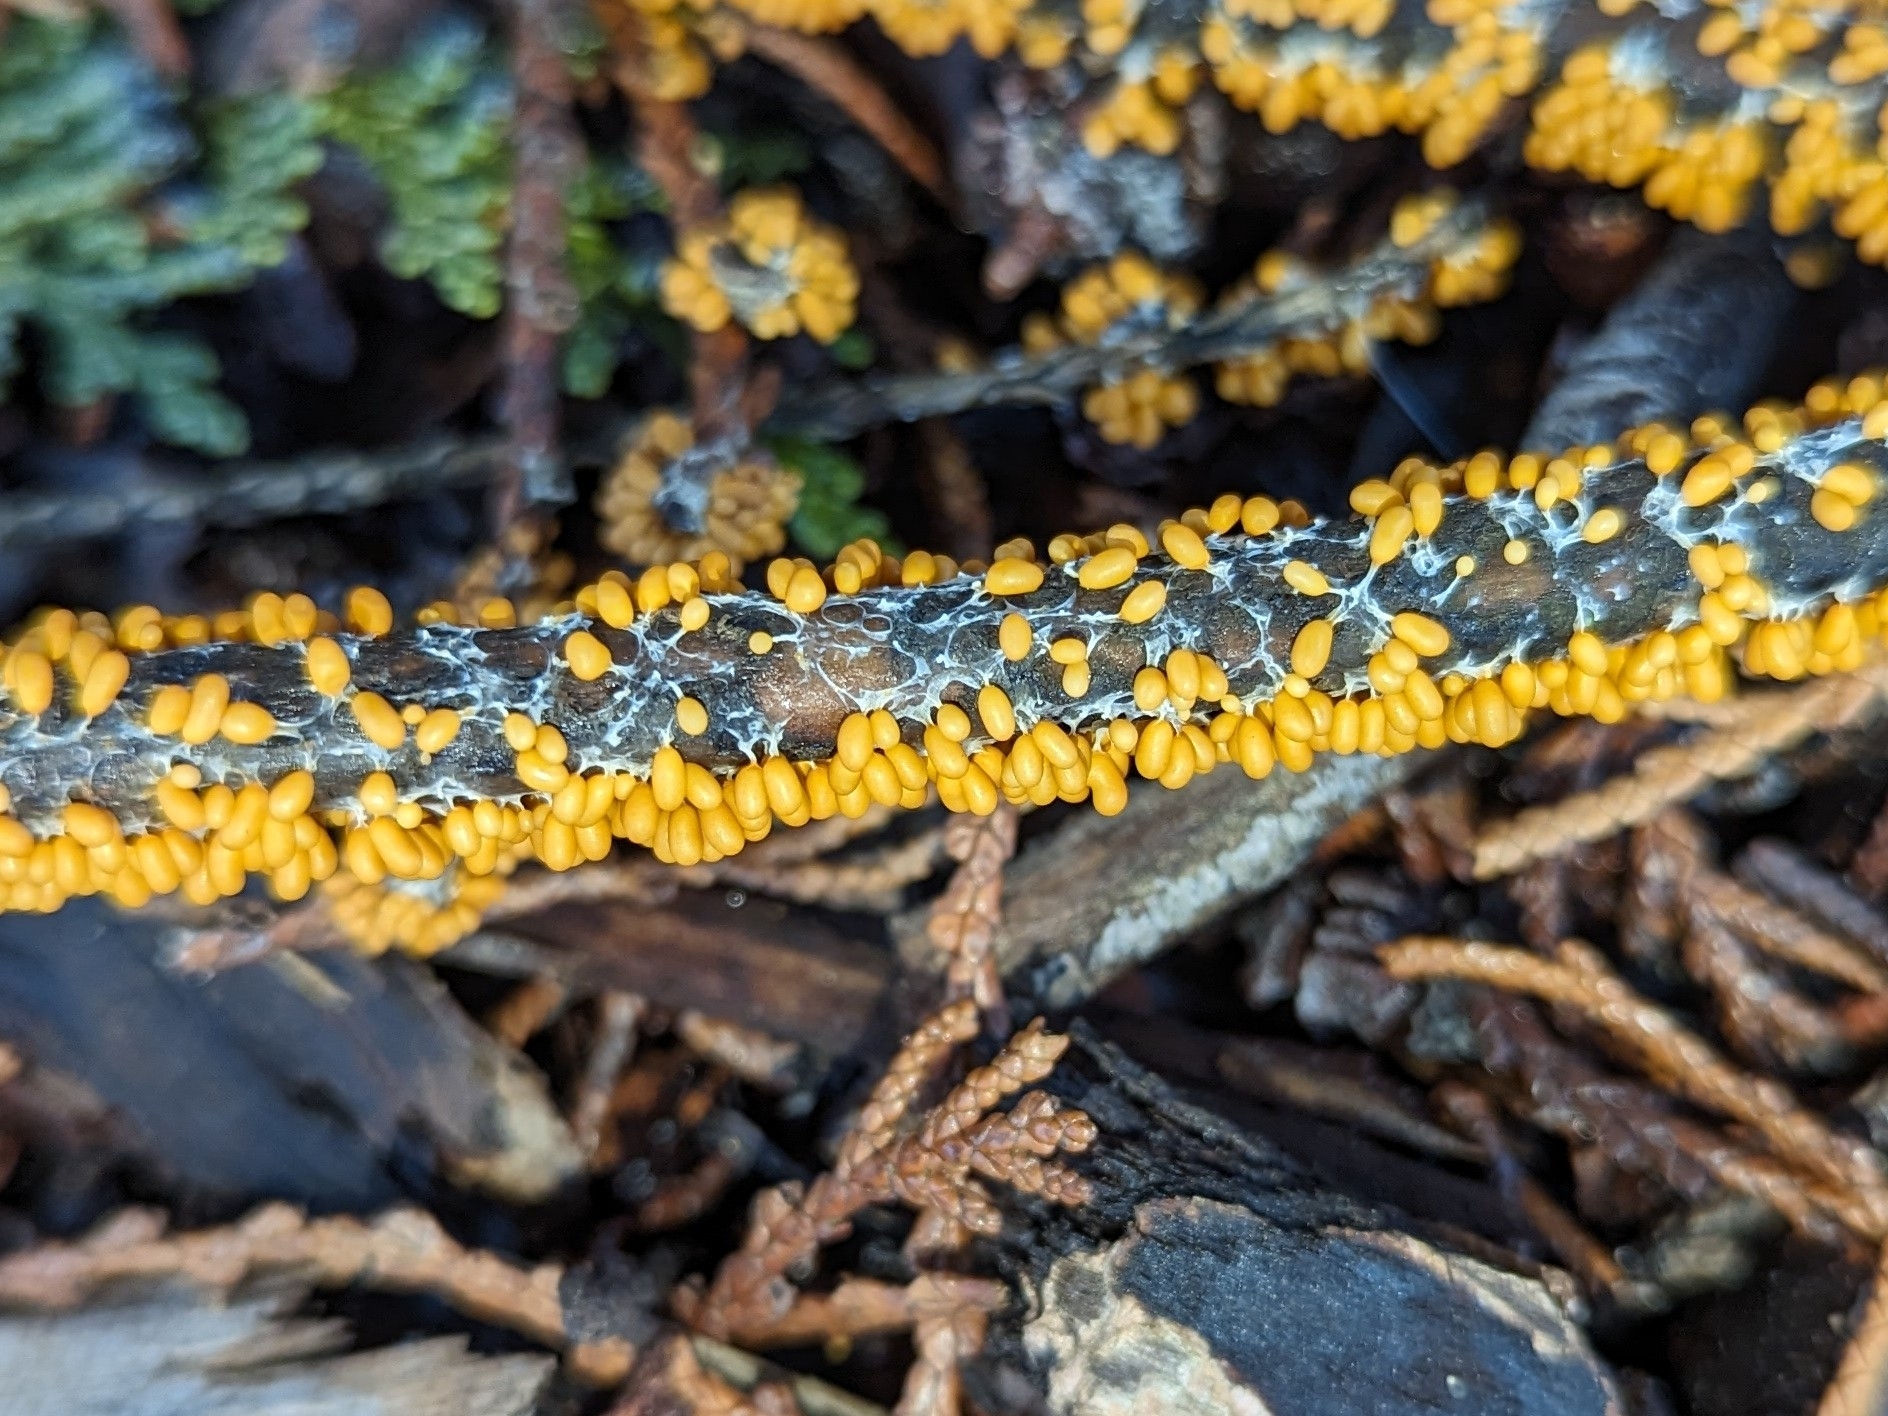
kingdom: Protozoa
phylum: Mycetozoa
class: Myxomycetes
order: Physarales
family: Physaraceae
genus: Leocarpus
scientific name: Leocarpus fragilis
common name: Insect-egg slime
